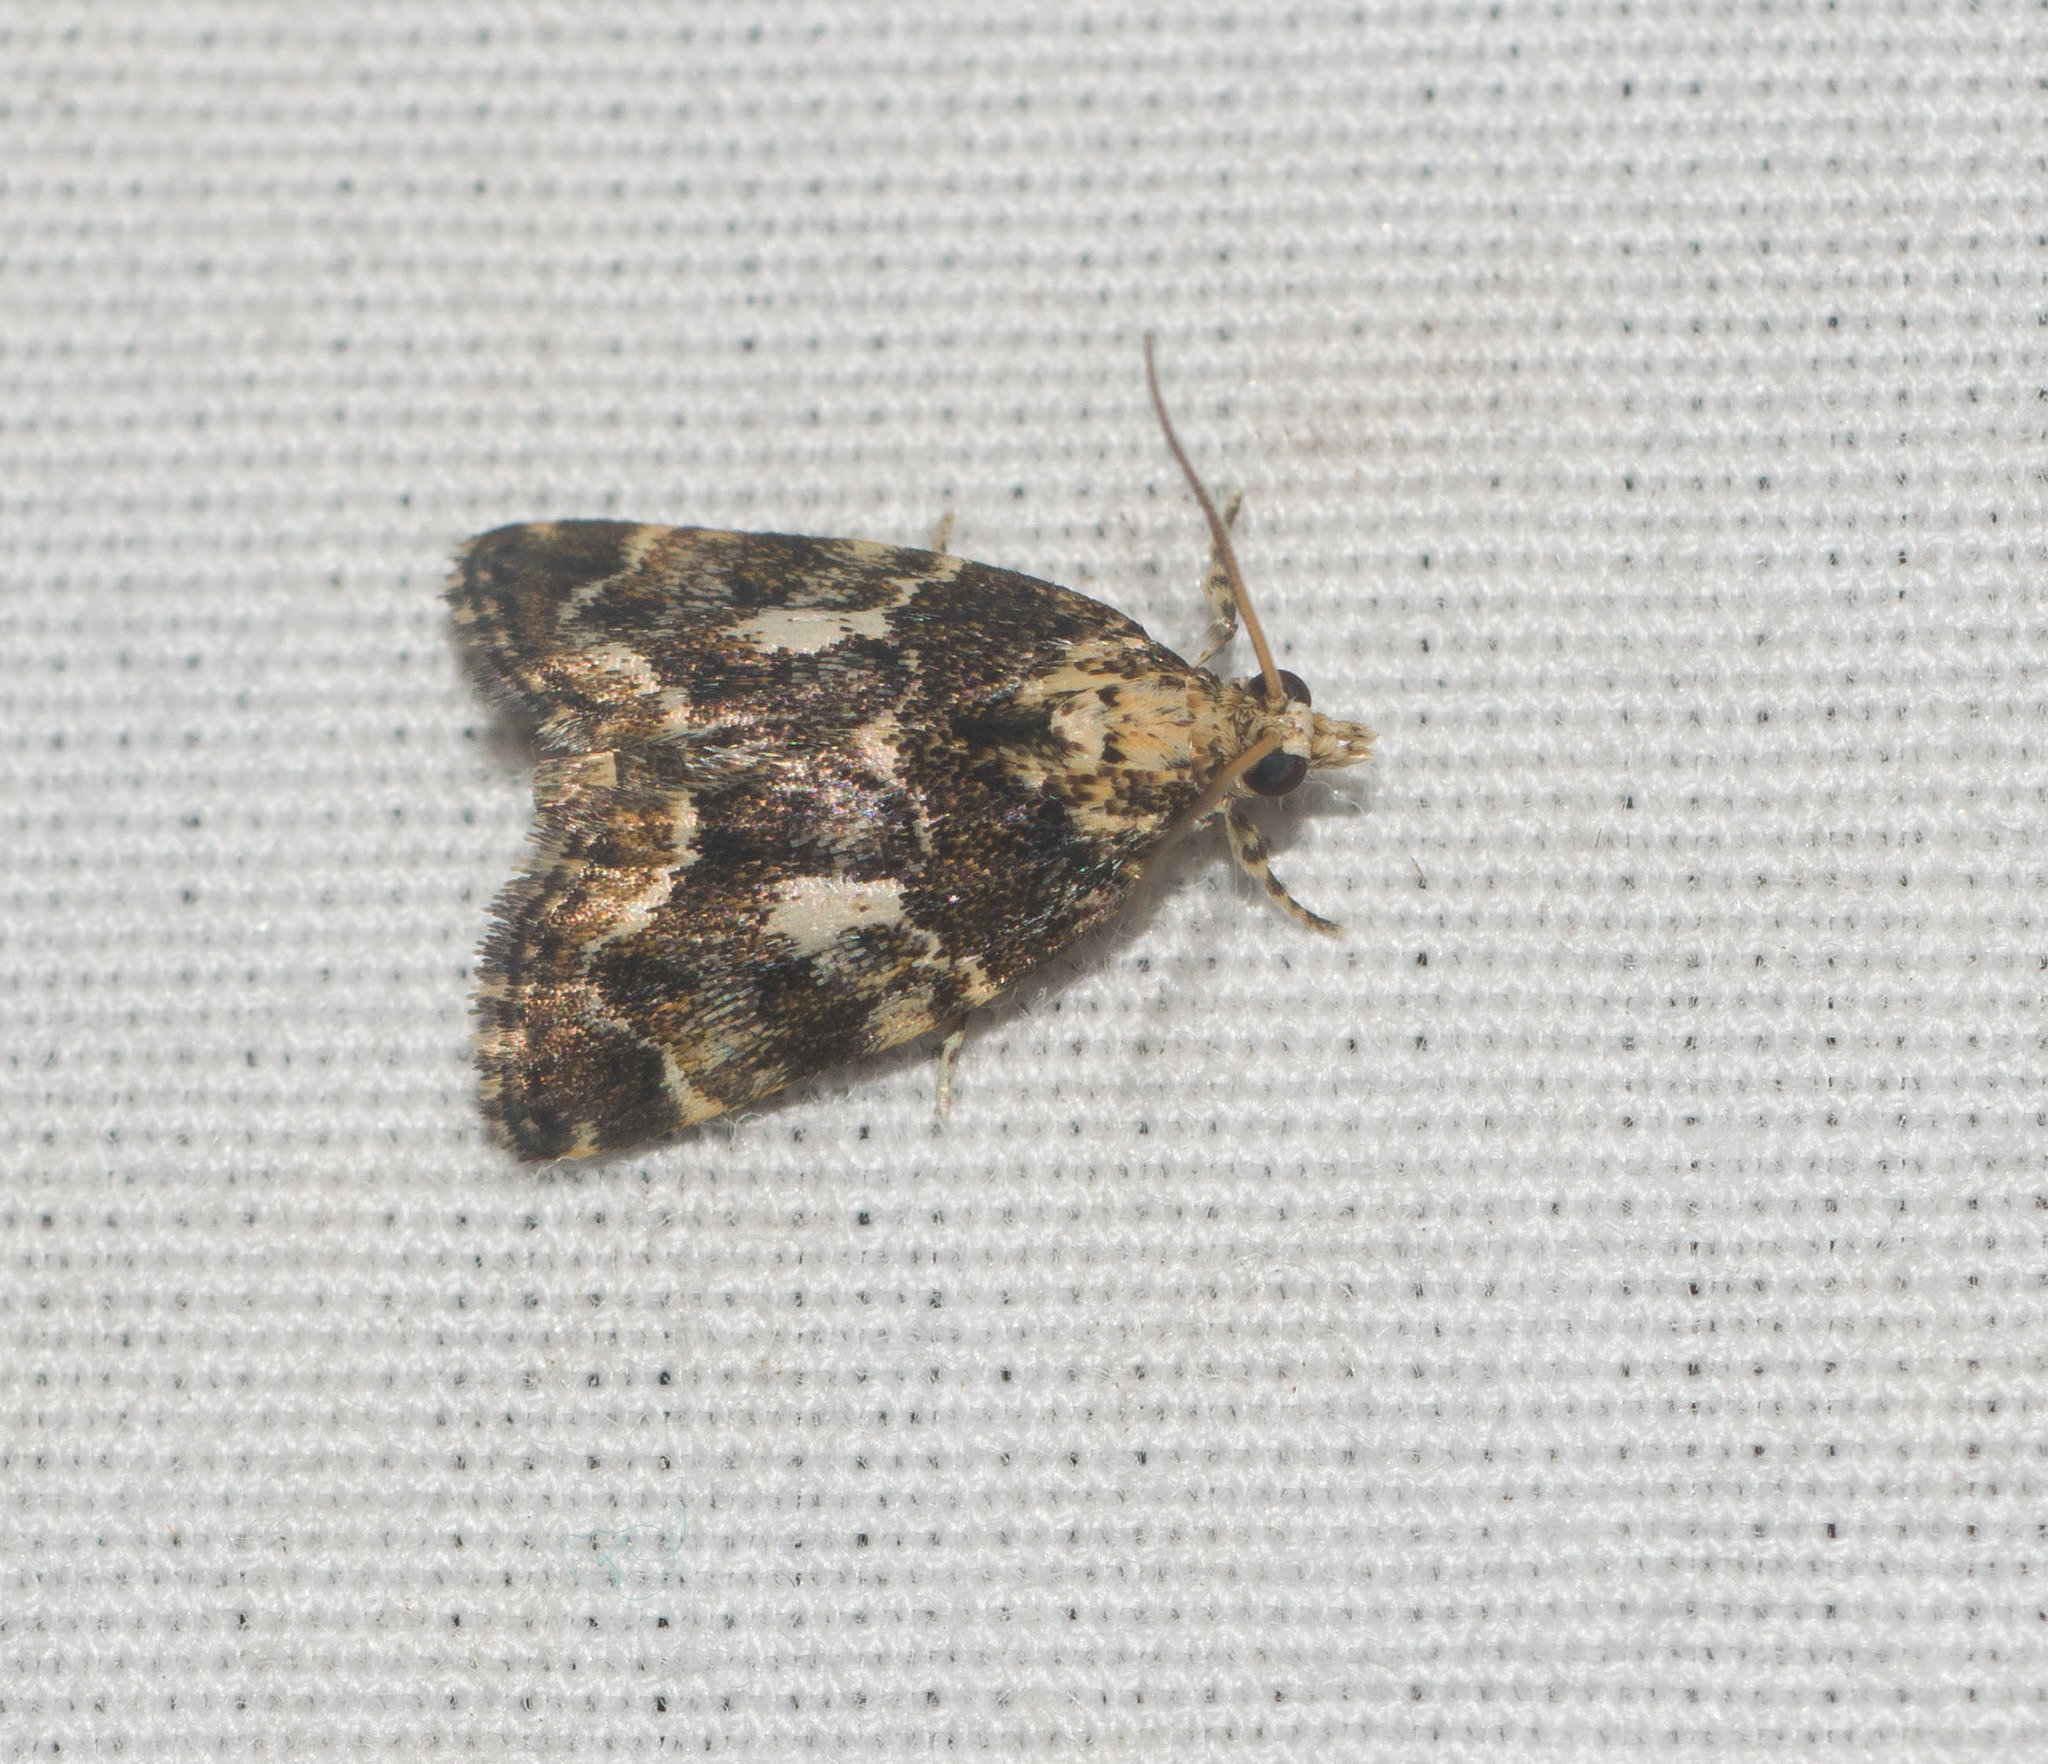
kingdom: Animalia
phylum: Arthropoda
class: Insecta
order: Lepidoptera
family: Crambidae
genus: Mestolobes
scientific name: Mestolobes abnormis
